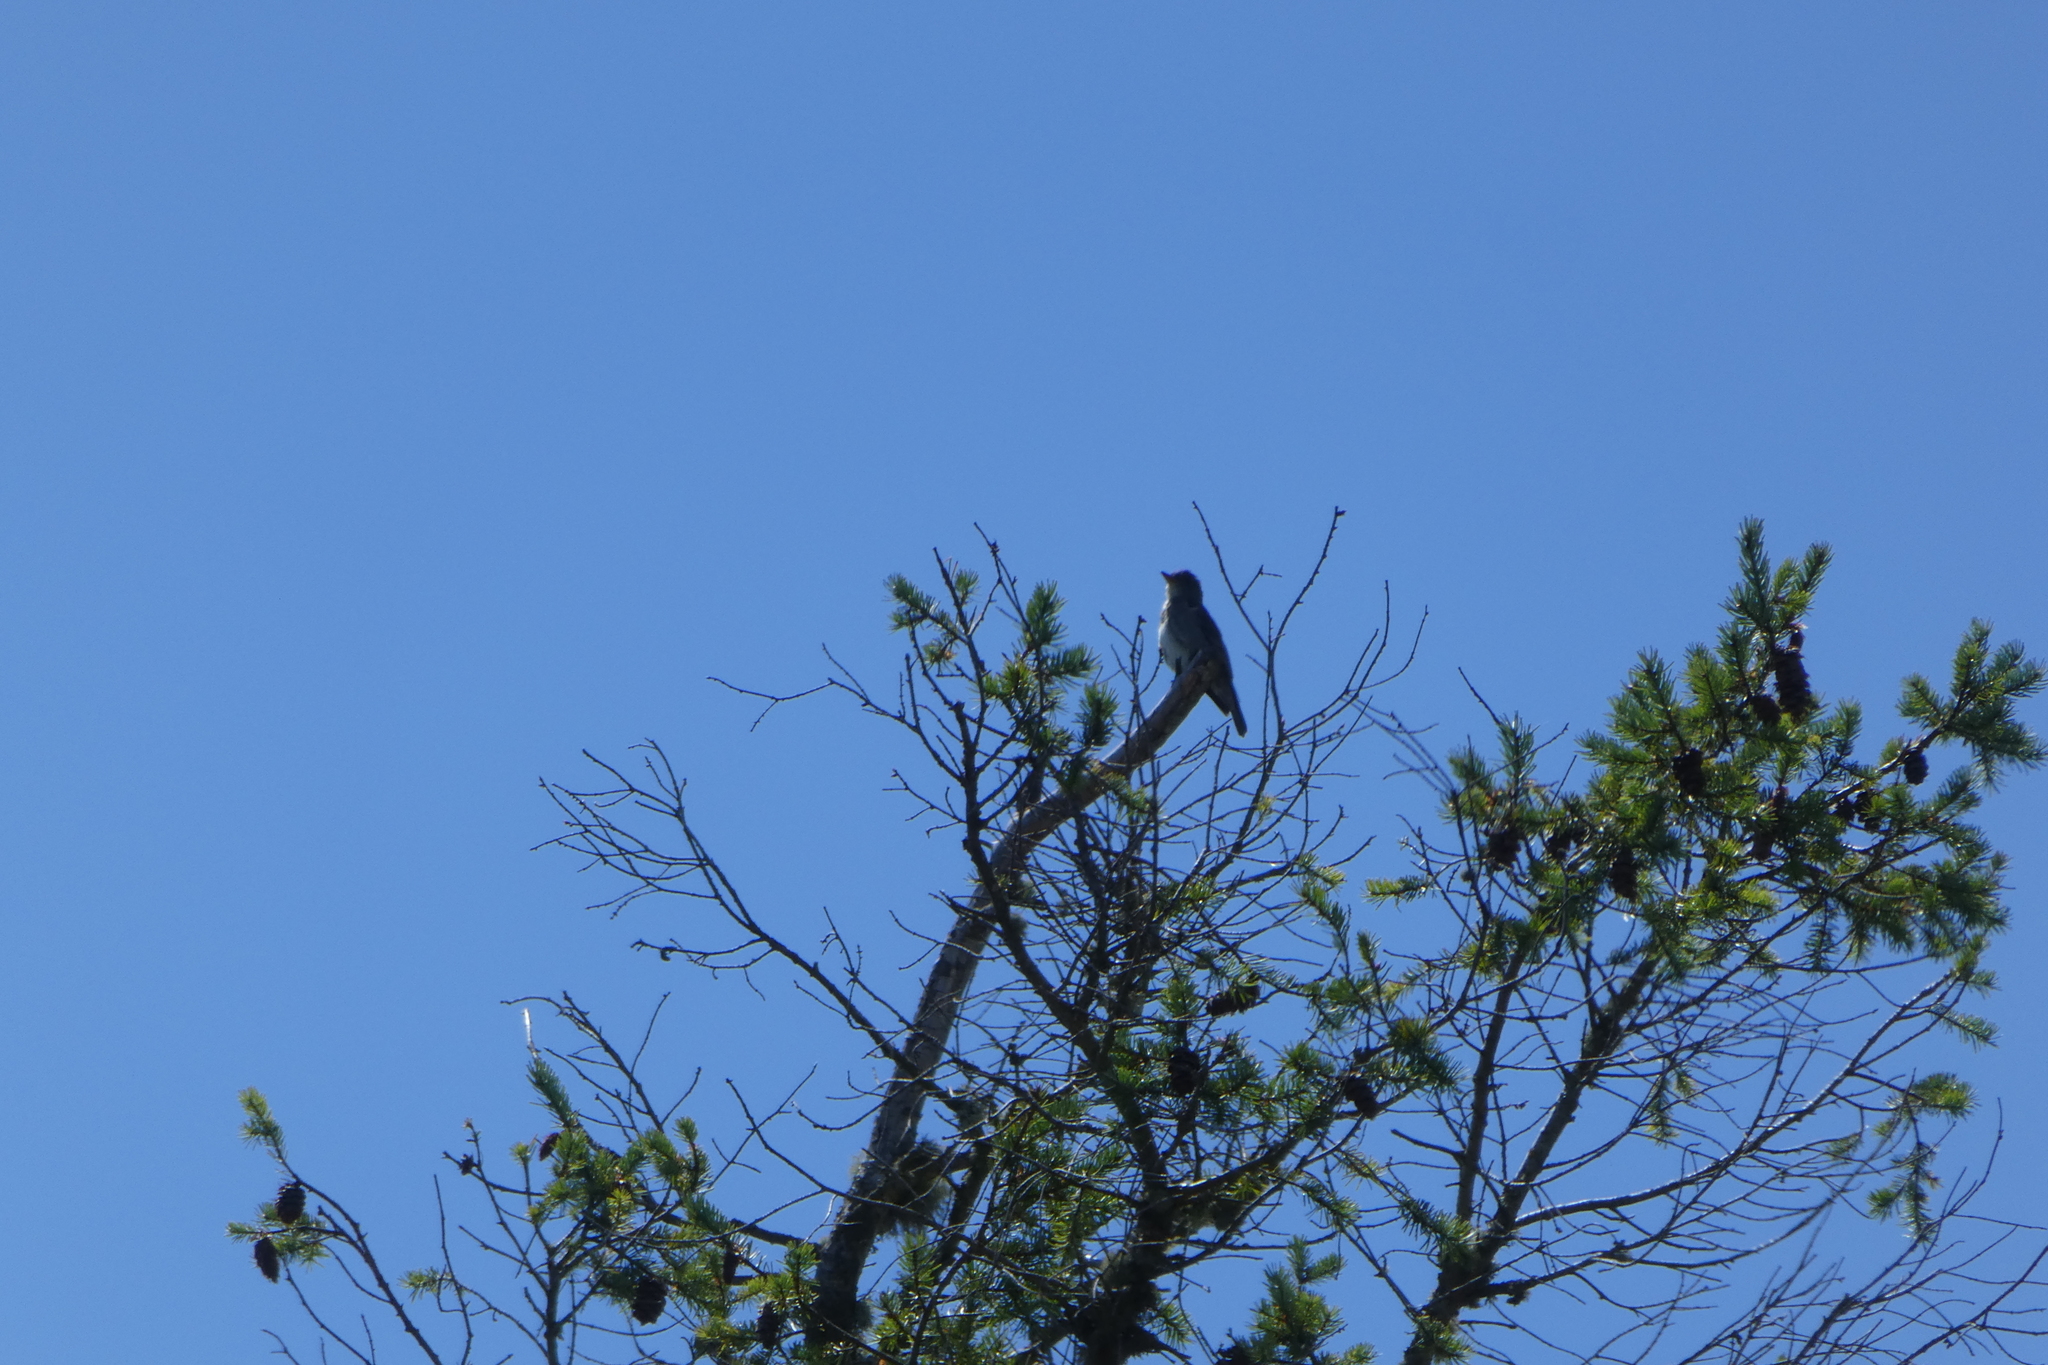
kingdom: Animalia
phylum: Chordata
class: Aves
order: Passeriformes
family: Tyrannidae
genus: Contopus
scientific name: Contopus cooperi
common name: Olive-sided flycatcher
